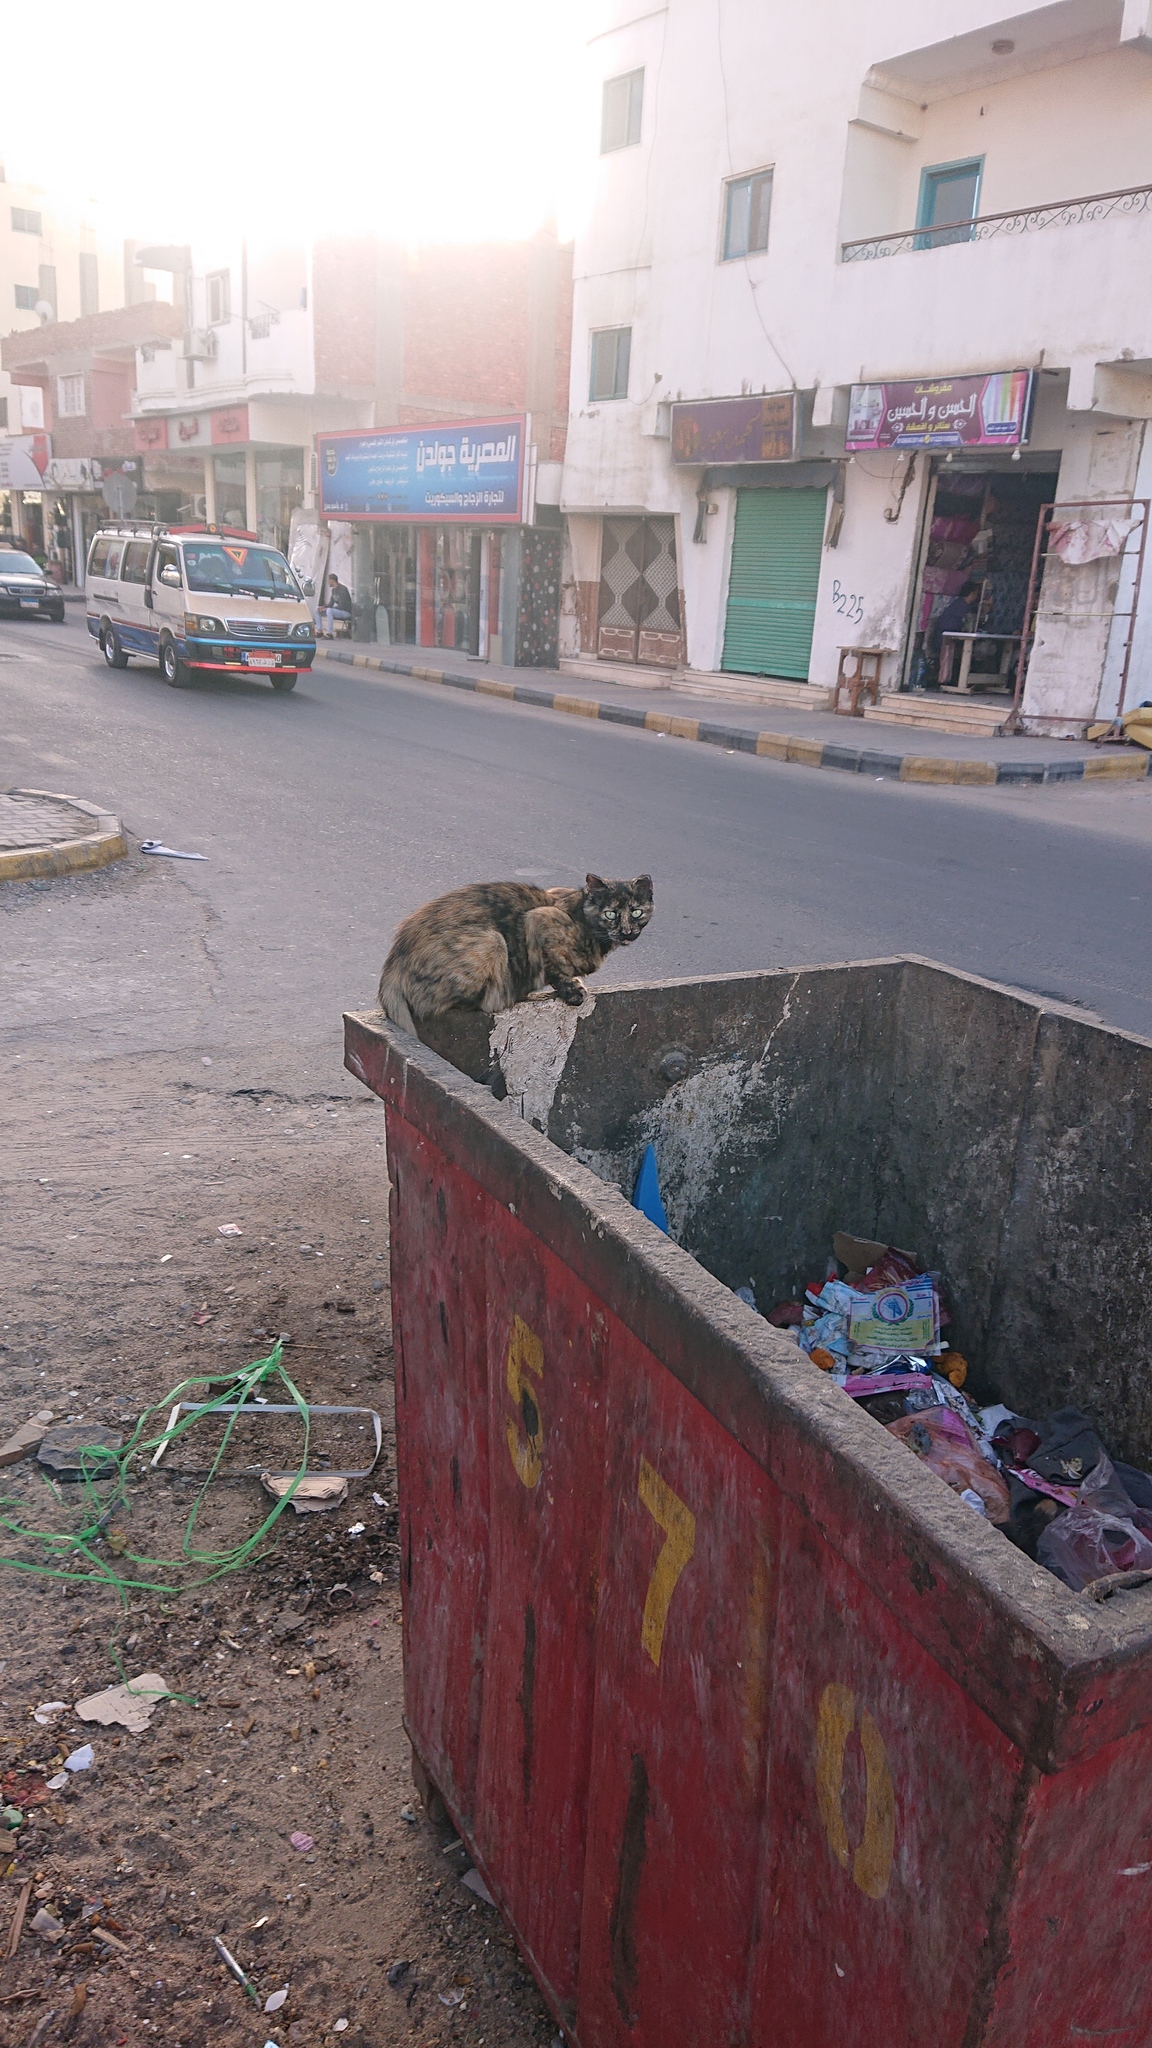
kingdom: Animalia
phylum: Chordata
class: Mammalia
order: Carnivora
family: Felidae
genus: Felis
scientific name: Felis catus
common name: Domestic cat
